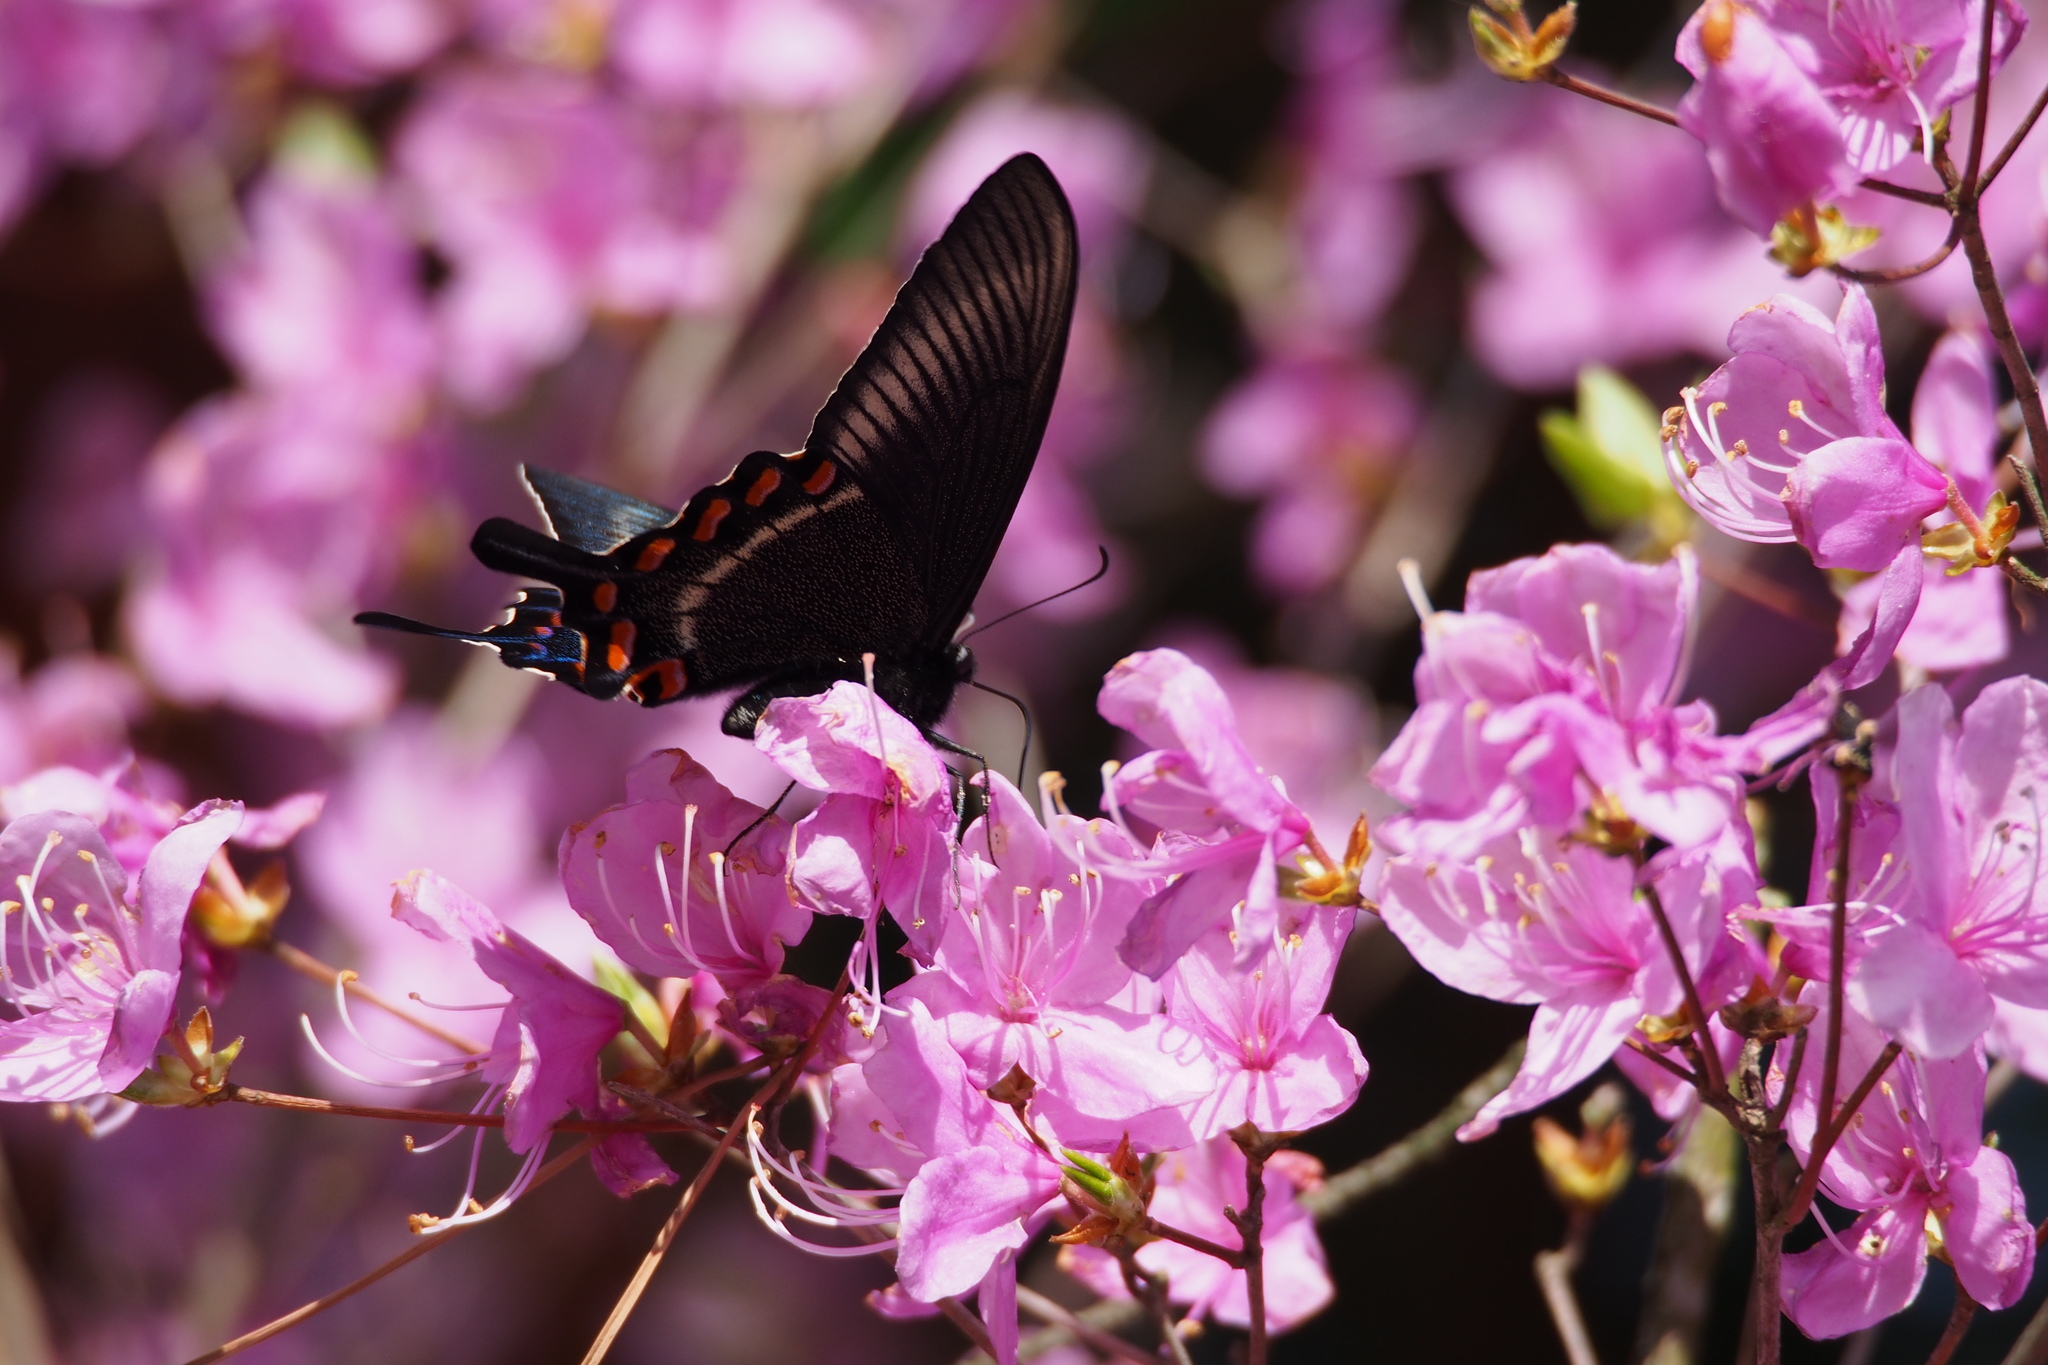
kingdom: Animalia
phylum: Arthropoda
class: Insecta
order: Lepidoptera
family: Papilionidae
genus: Papilio
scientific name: Papilio maackii
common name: Alpine black swallowtail
